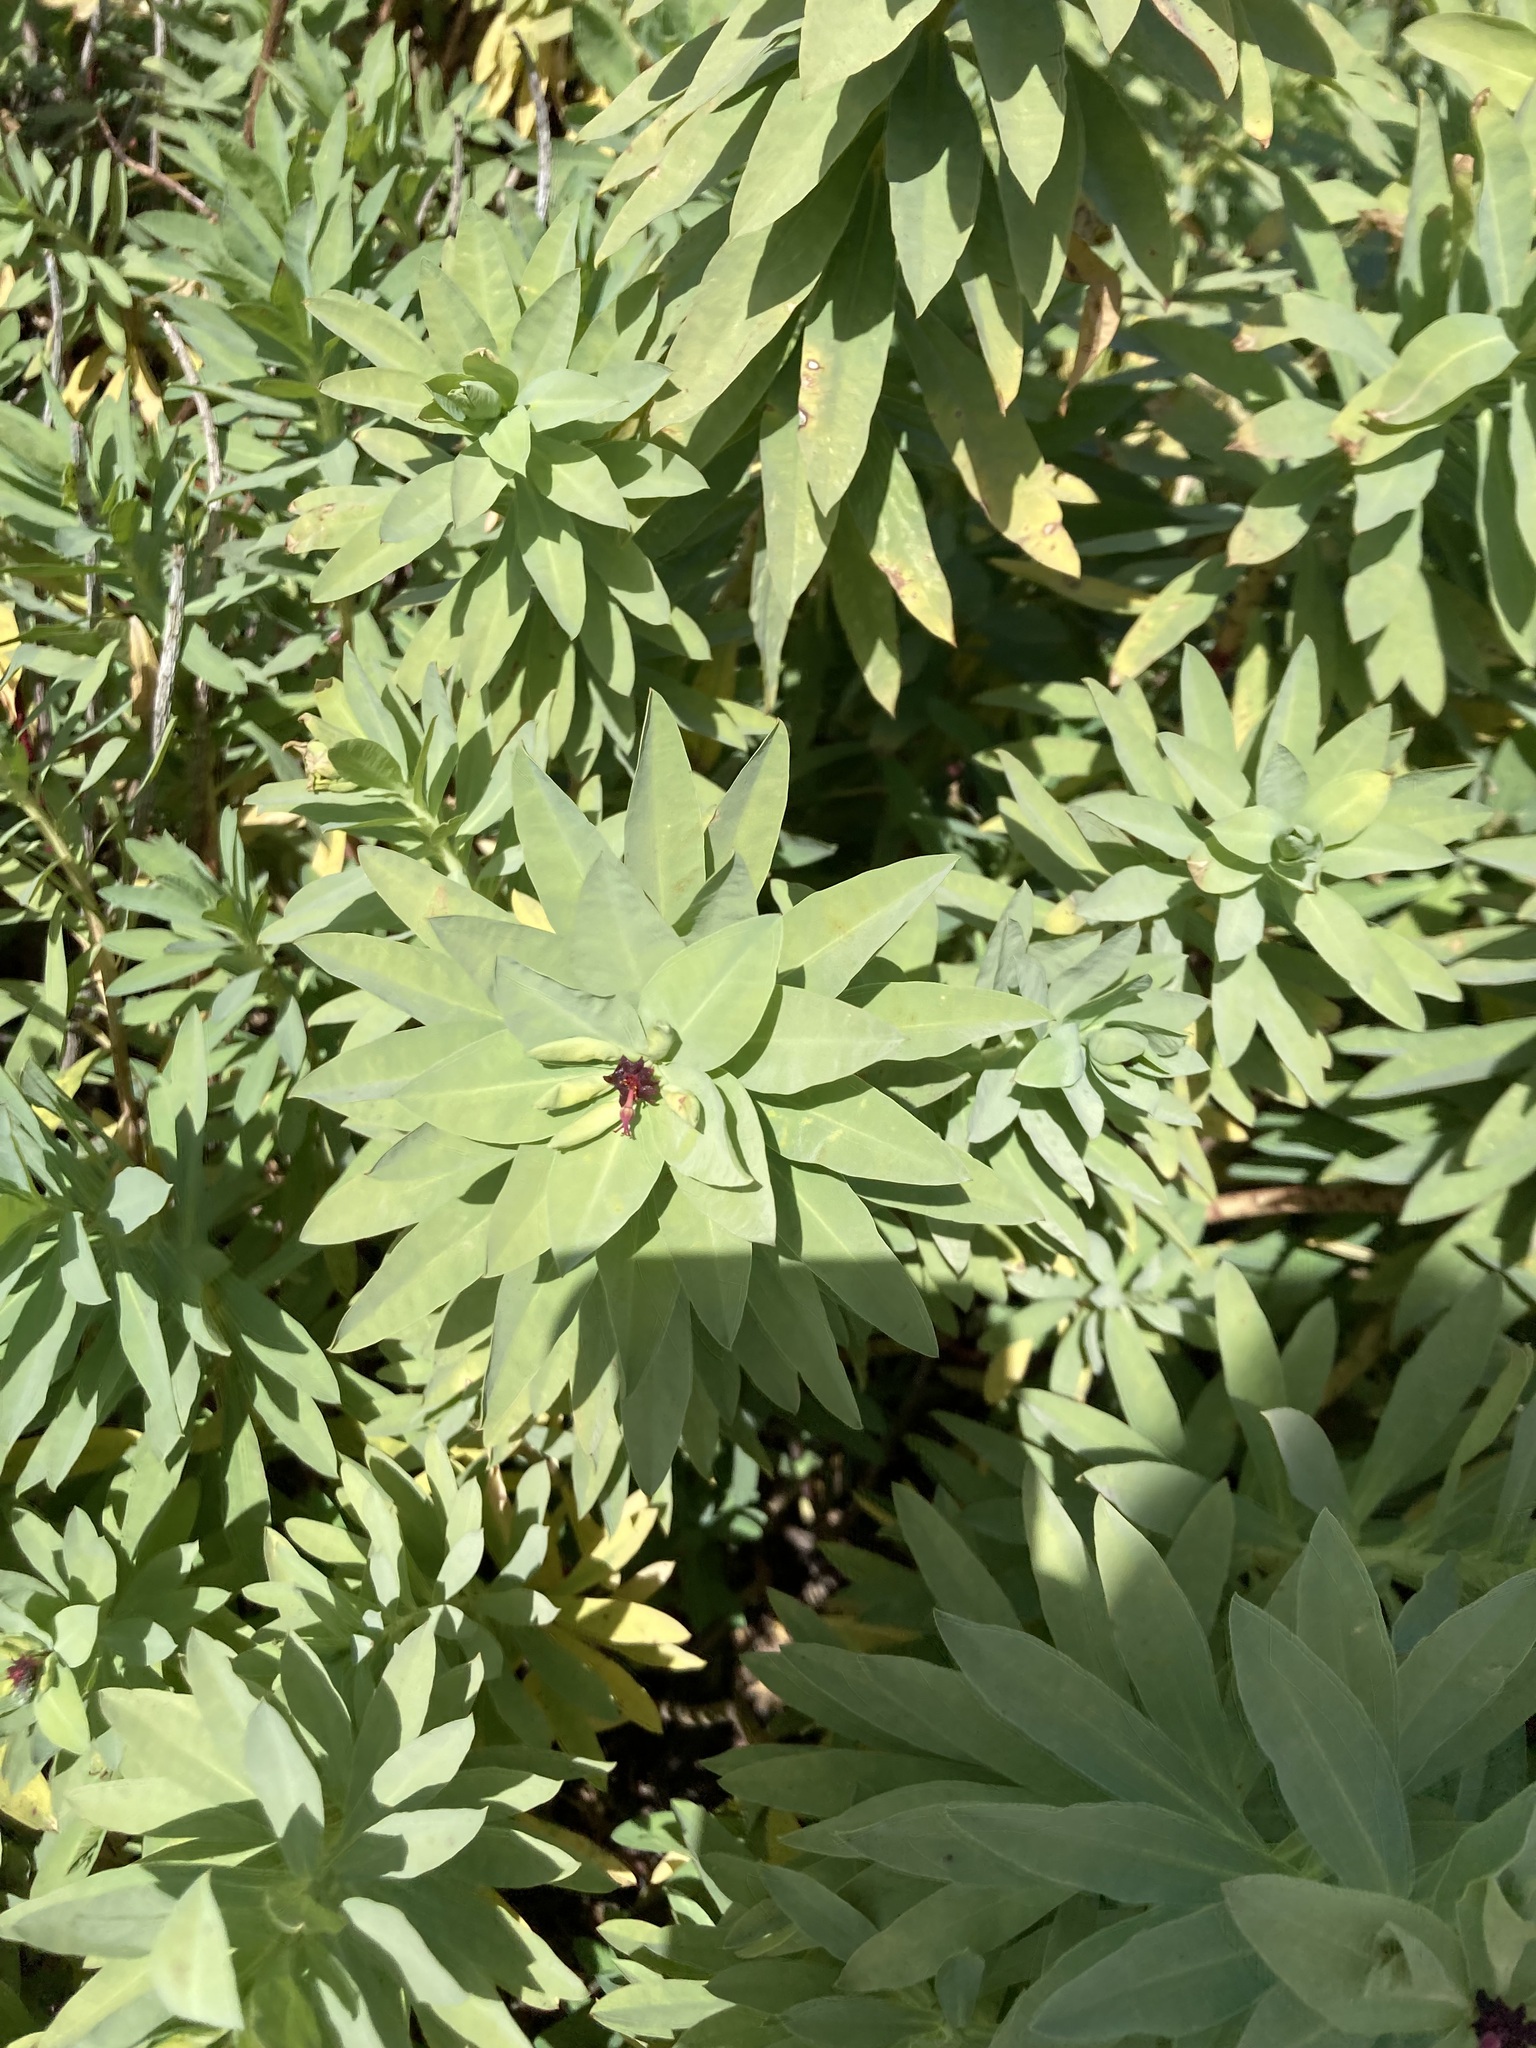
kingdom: Plantae
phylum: Tracheophyta
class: Magnoliopsida
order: Malpighiales
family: Euphorbiaceae
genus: Euphorbia
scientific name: Euphorbia glauca
